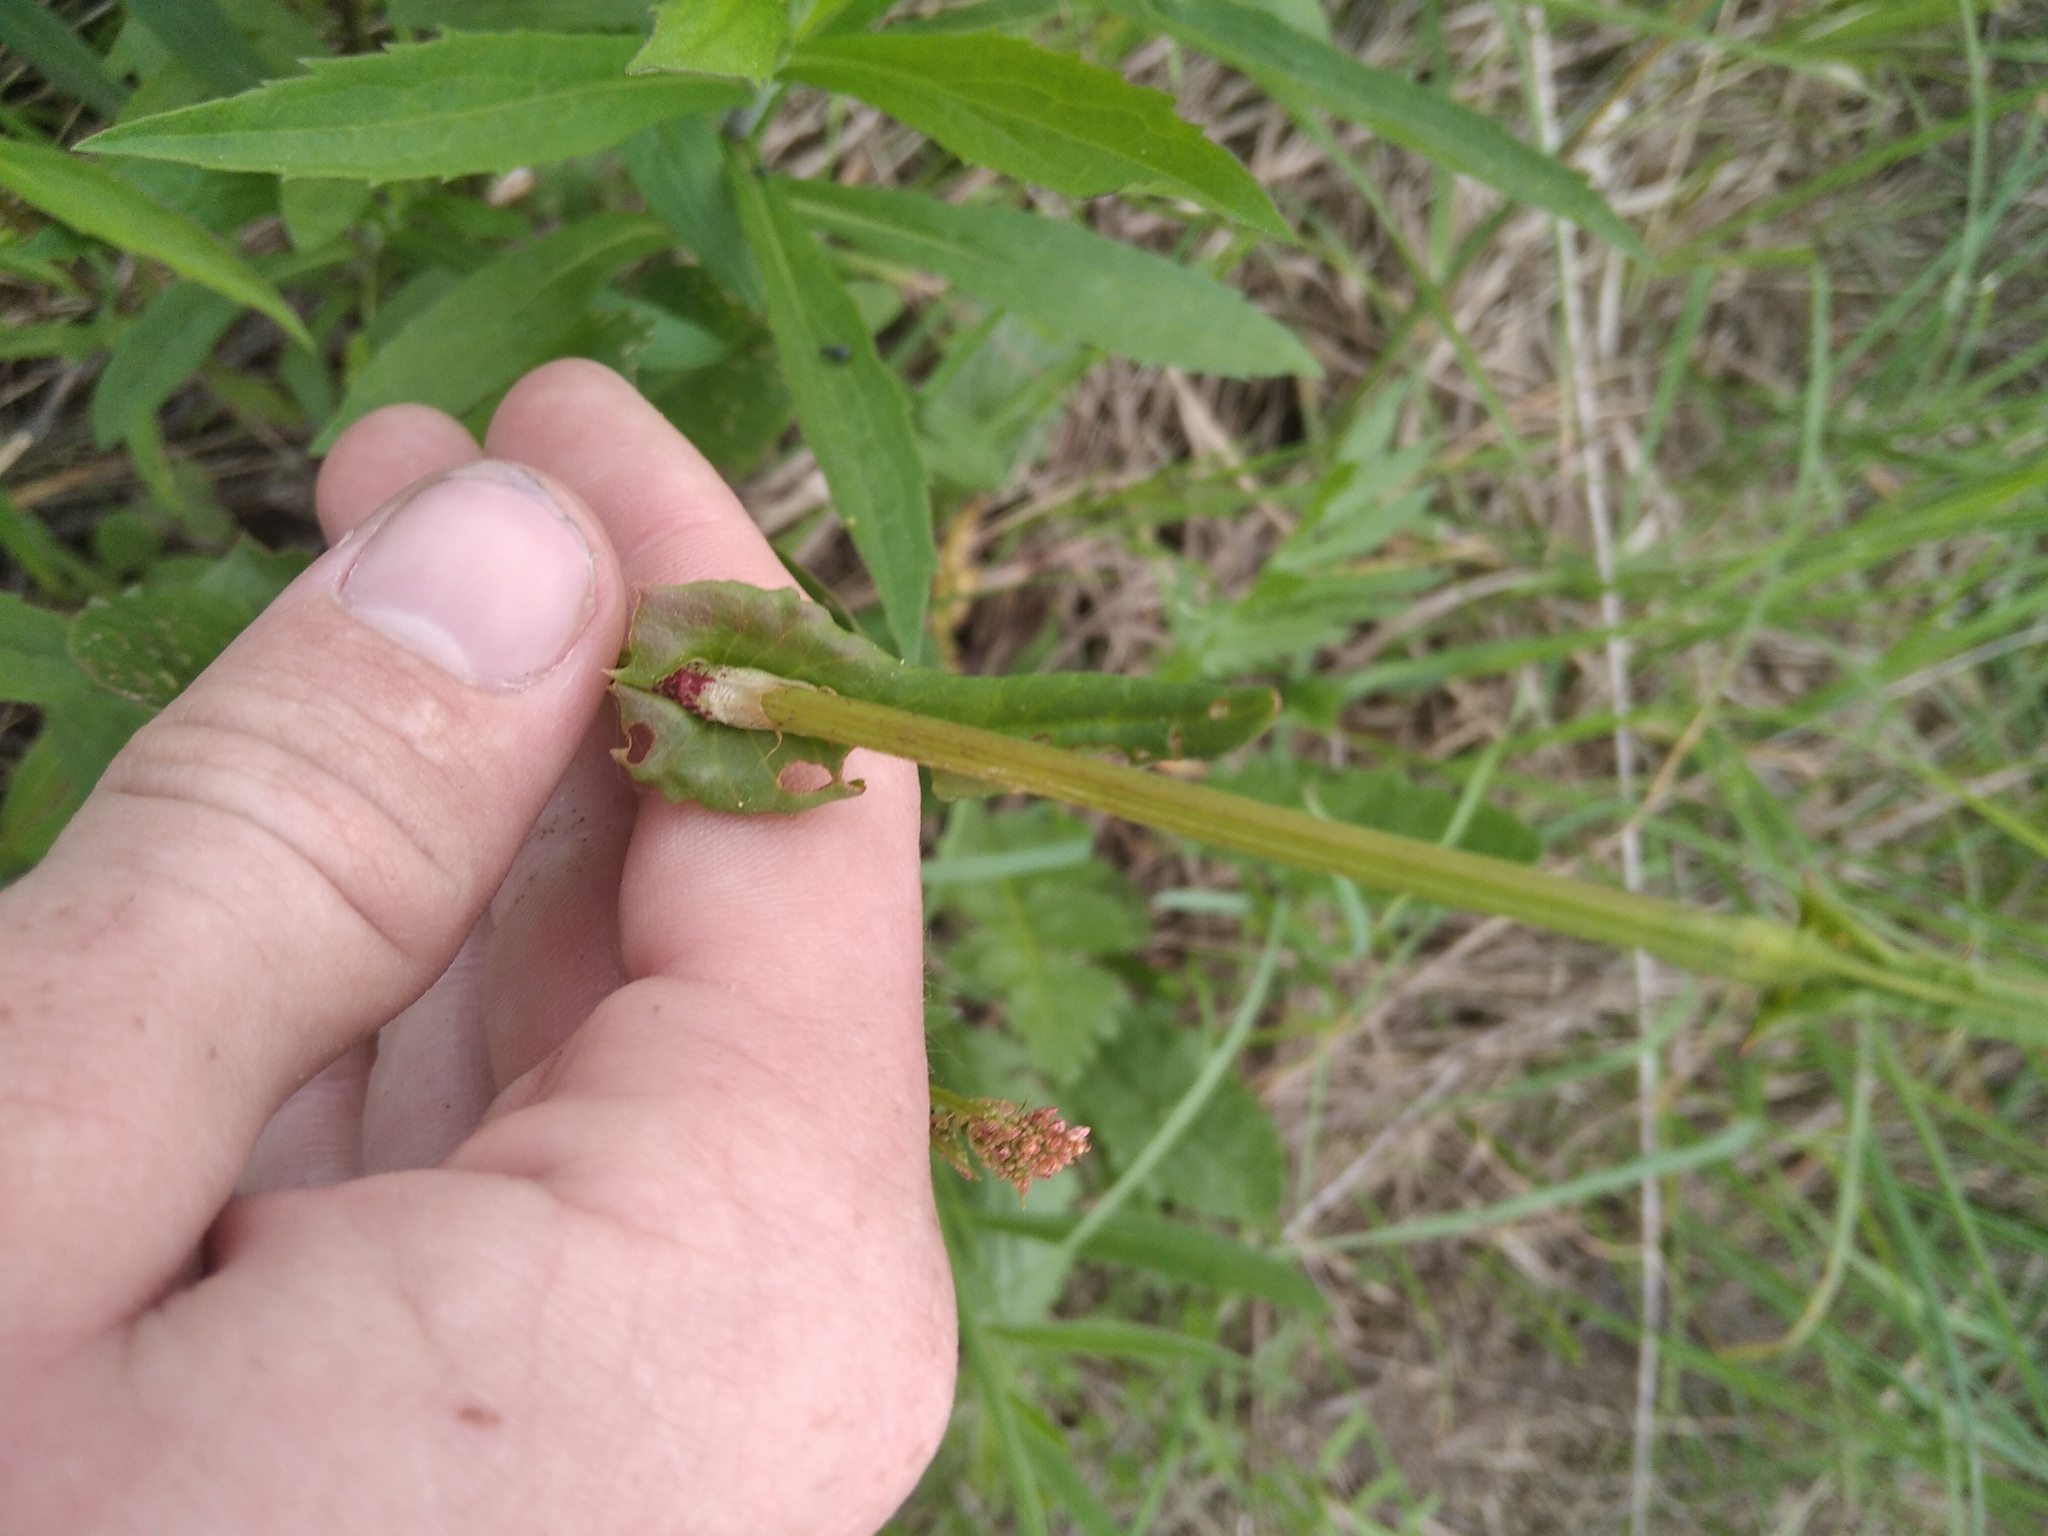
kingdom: Plantae
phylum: Tracheophyta
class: Magnoliopsida
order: Caryophyllales
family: Polygonaceae
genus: Rumex
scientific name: Rumex acetosa
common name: Garden sorrel
